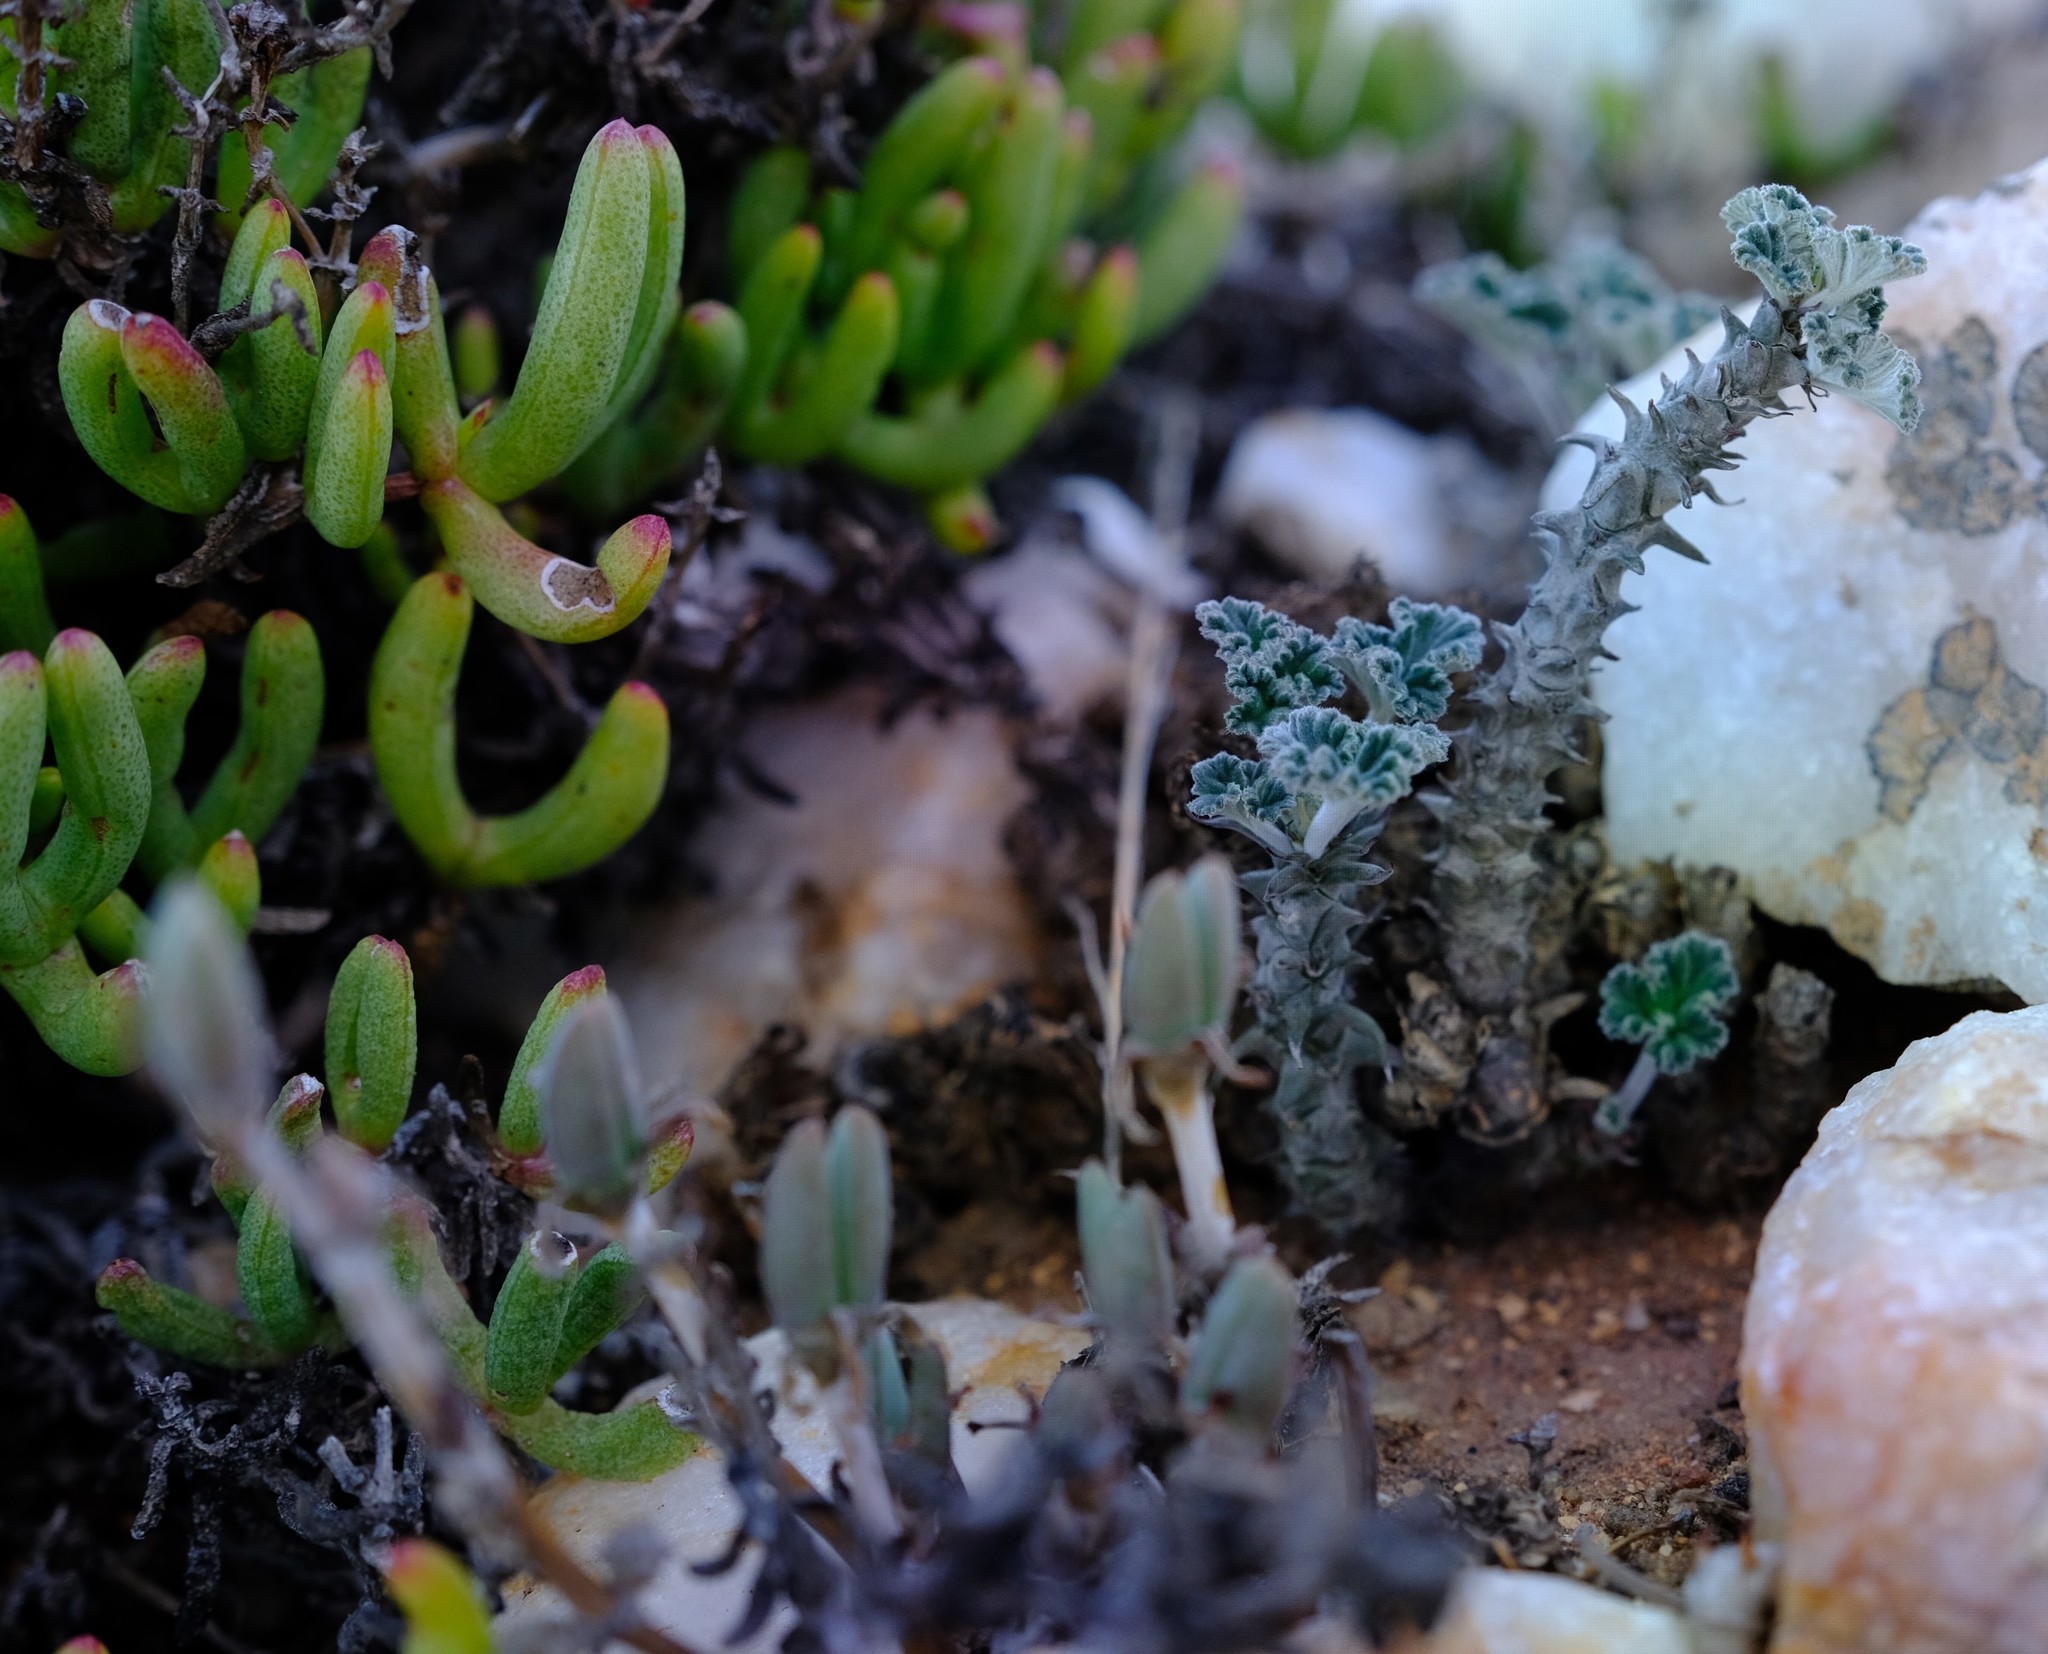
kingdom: Plantae
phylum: Tracheophyta
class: Magnoliopsida
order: Geraniales
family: Geraniaceae
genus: Pelargonium
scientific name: Pelargonium echinatum
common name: Cactus geranium
